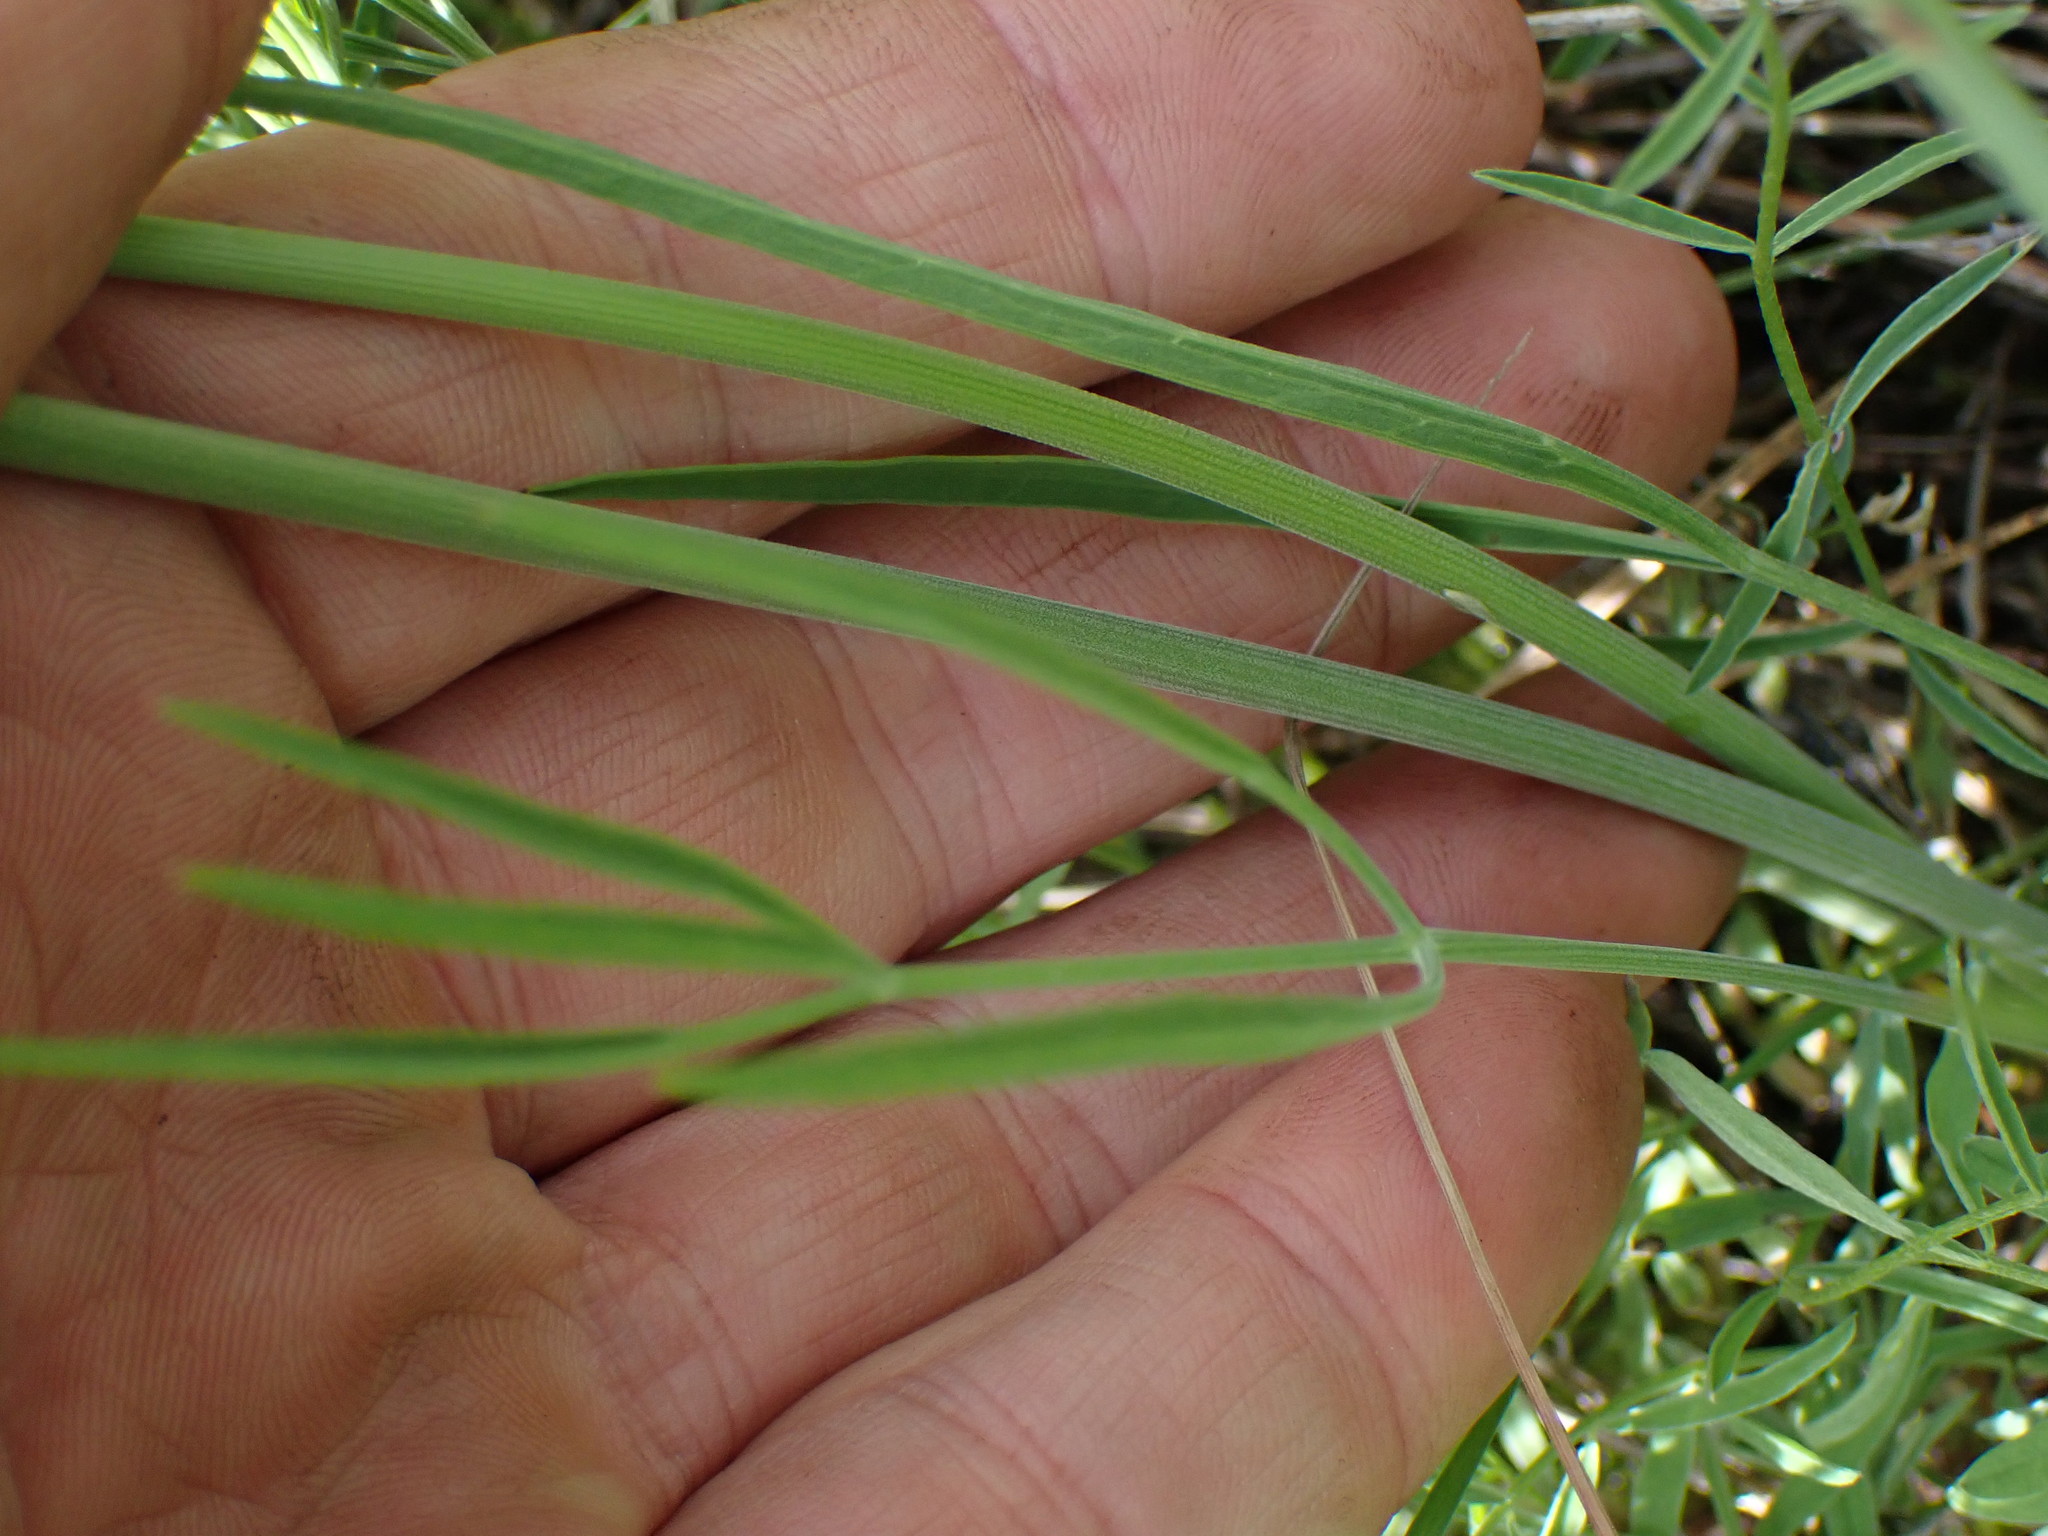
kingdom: Plantae
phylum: Tracheophyta
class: Magnoliopsida
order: Apiales
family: Apiaceae
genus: Lomatium
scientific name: Lomatium triternatum
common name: Ternate lomatium
